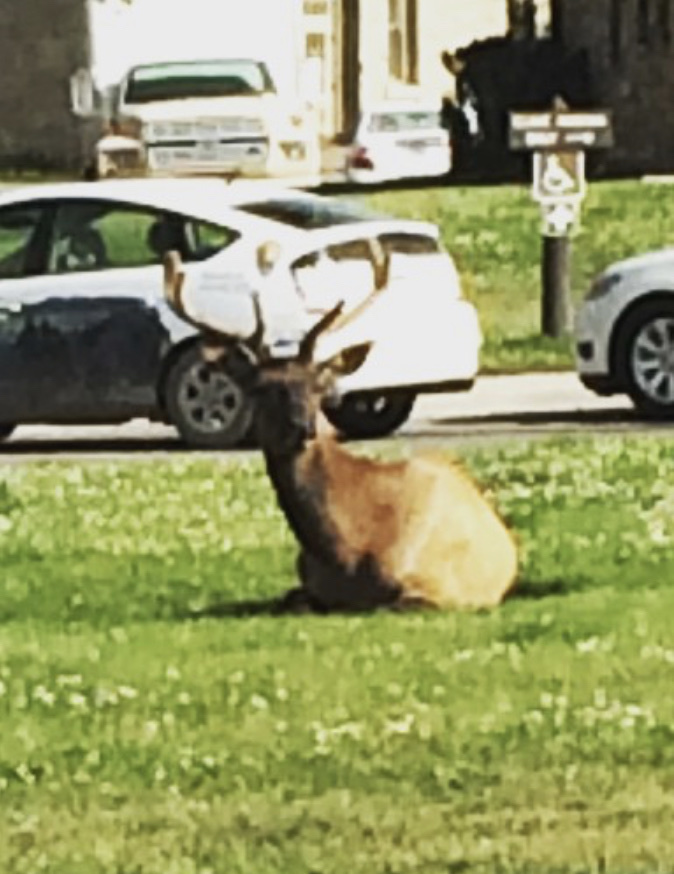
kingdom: Animalia
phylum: Chordata
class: Mammalia
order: Artiodactyla
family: Cervidae
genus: Cervus
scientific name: Cervus elaphus
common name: Red deer
